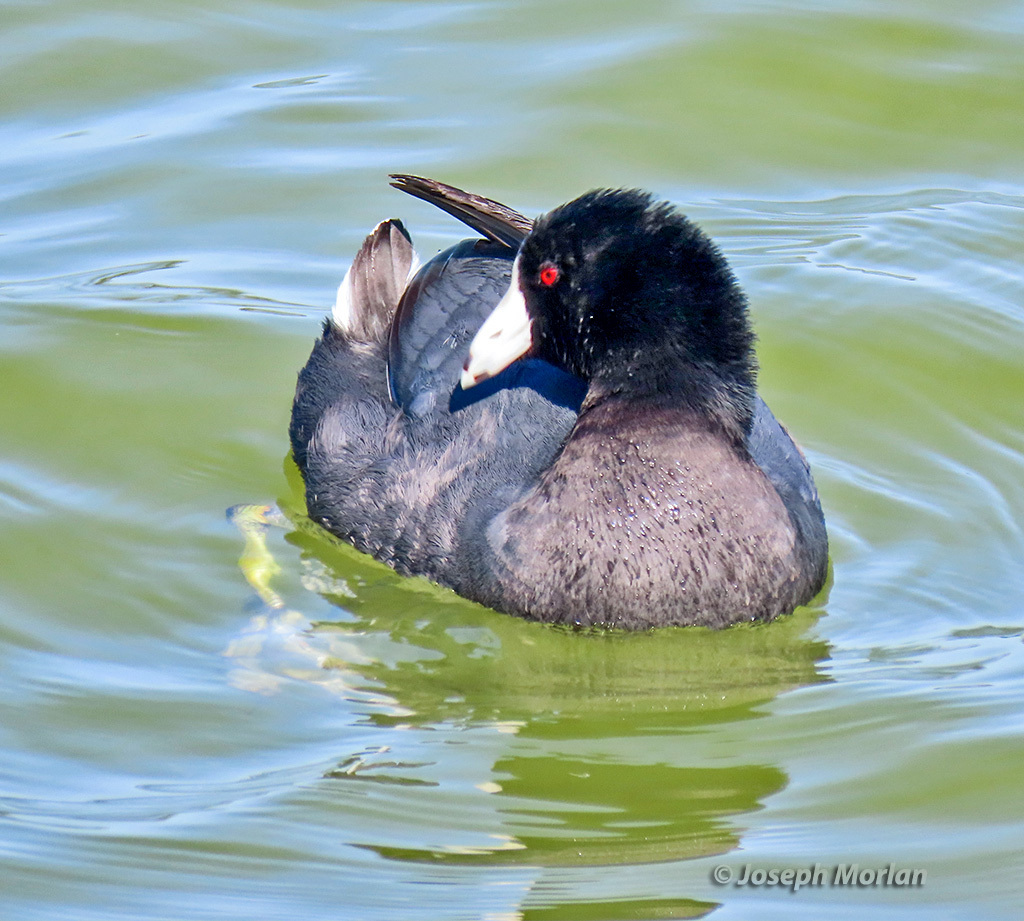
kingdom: Animalia
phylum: Chordata
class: Aves
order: Gruiformes
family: Rallidae
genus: Fulica
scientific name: Fulica americana
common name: American coot
